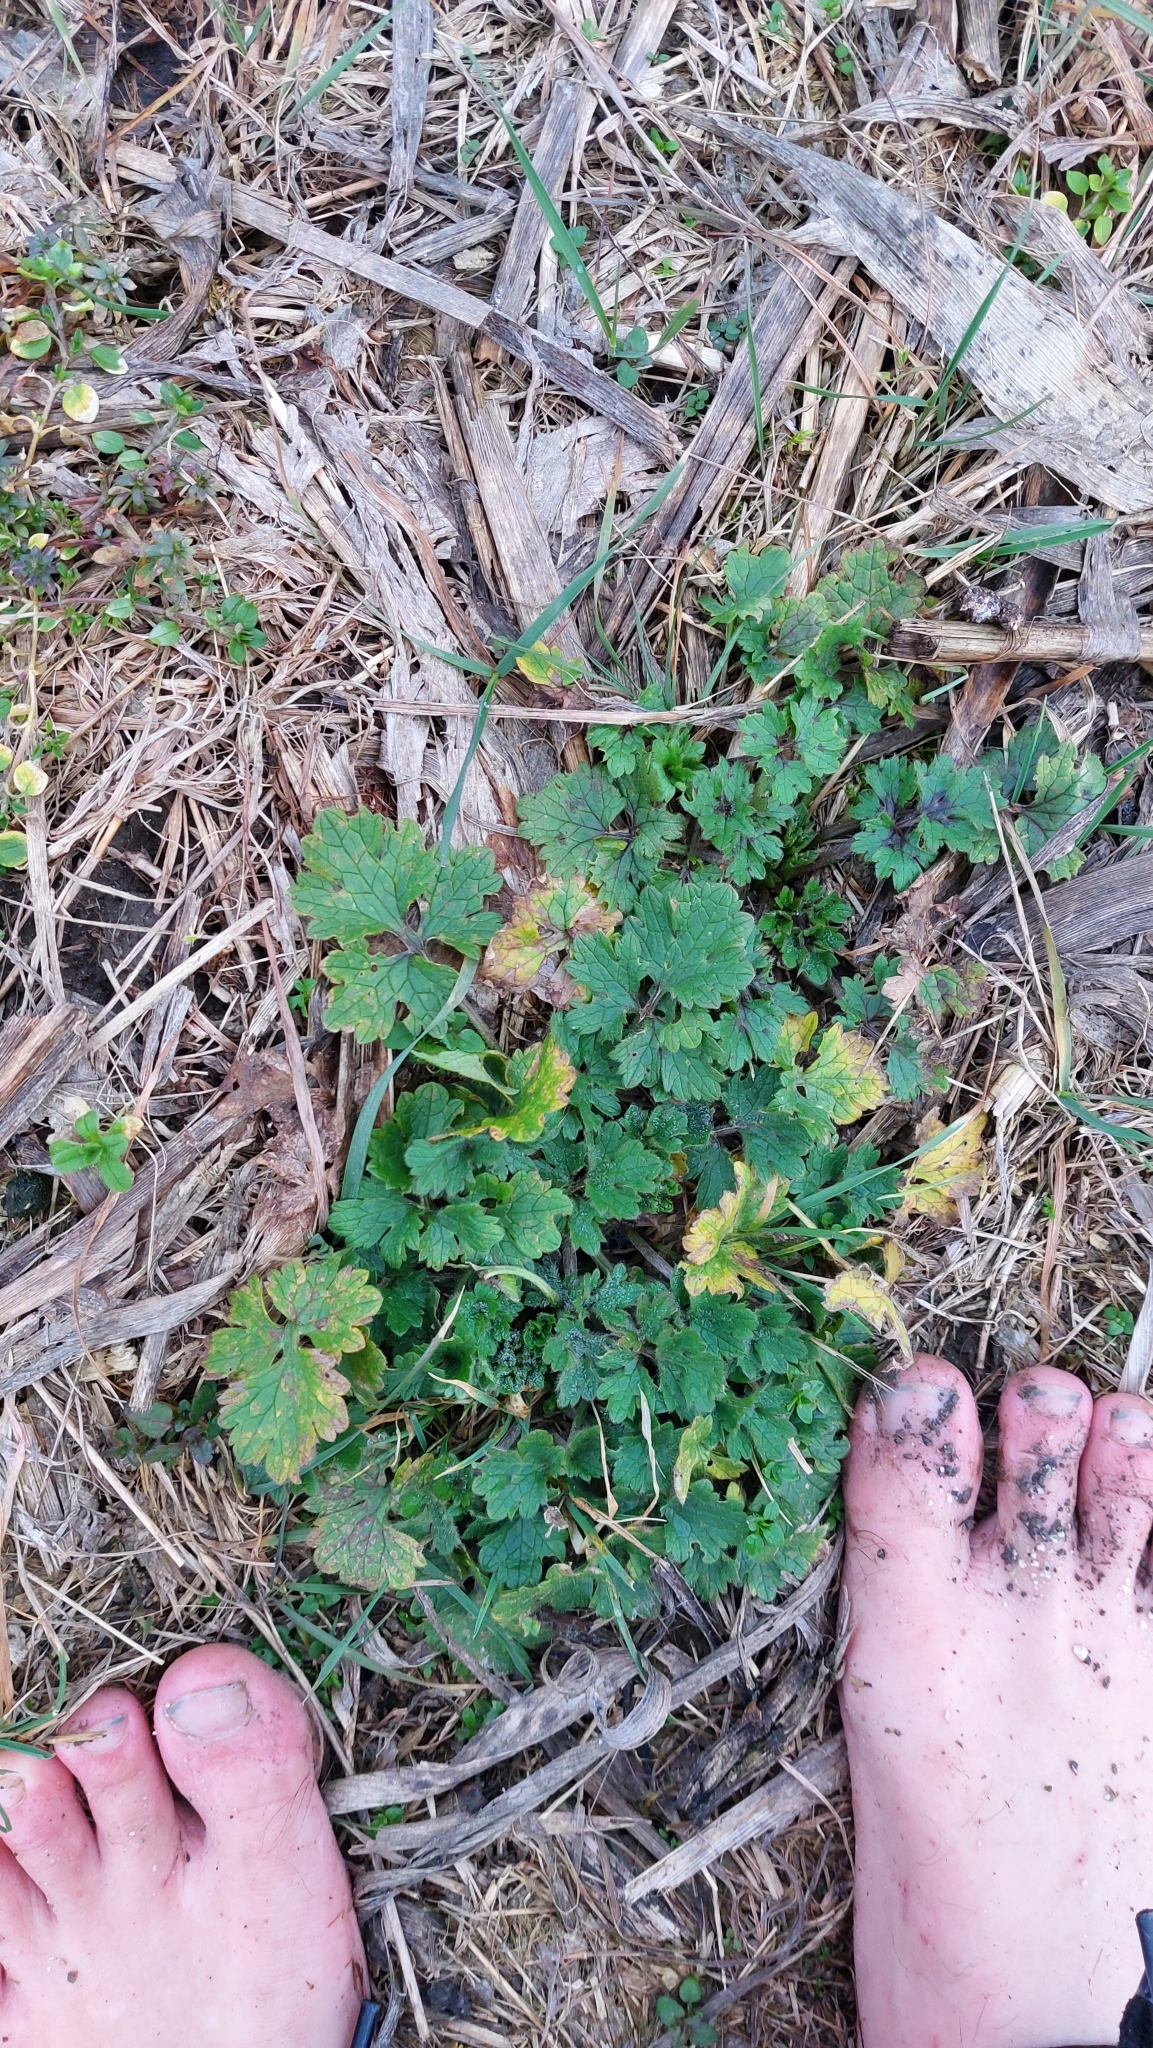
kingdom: Plantae
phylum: Tracheophyta
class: Magnoliopsida
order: Ranunculales
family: Papaveraceae
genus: Chelidonium
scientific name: Chelidonium majus
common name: Greater celandine
